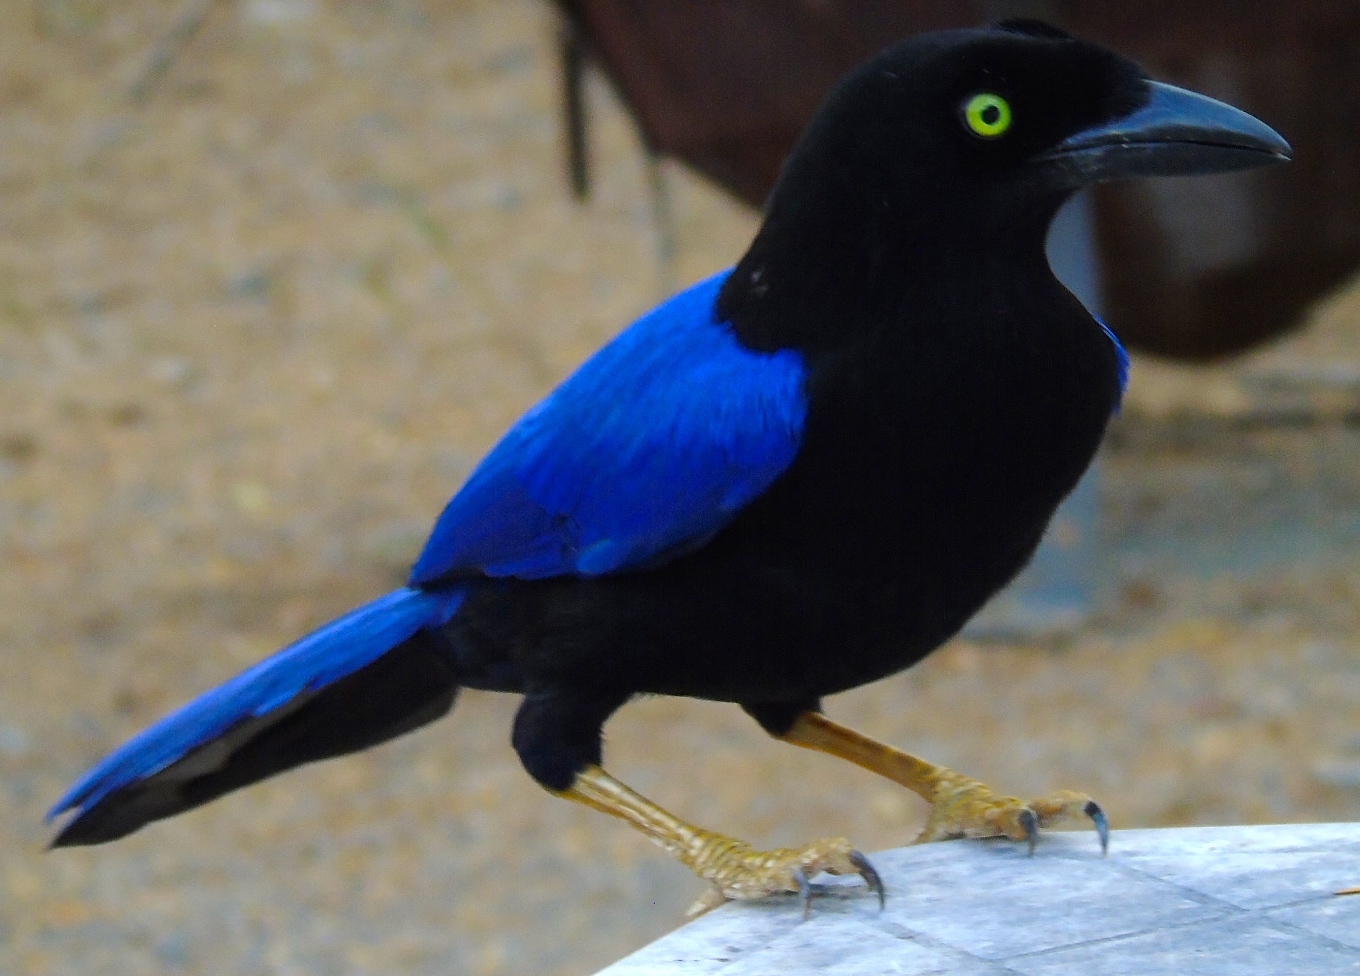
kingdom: Animalia
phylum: Chordata
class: Aves
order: Passeriformes
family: Corvidae
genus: Cyanocorax
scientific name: Cyanocorax beecheii
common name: Purplish-backed jay
